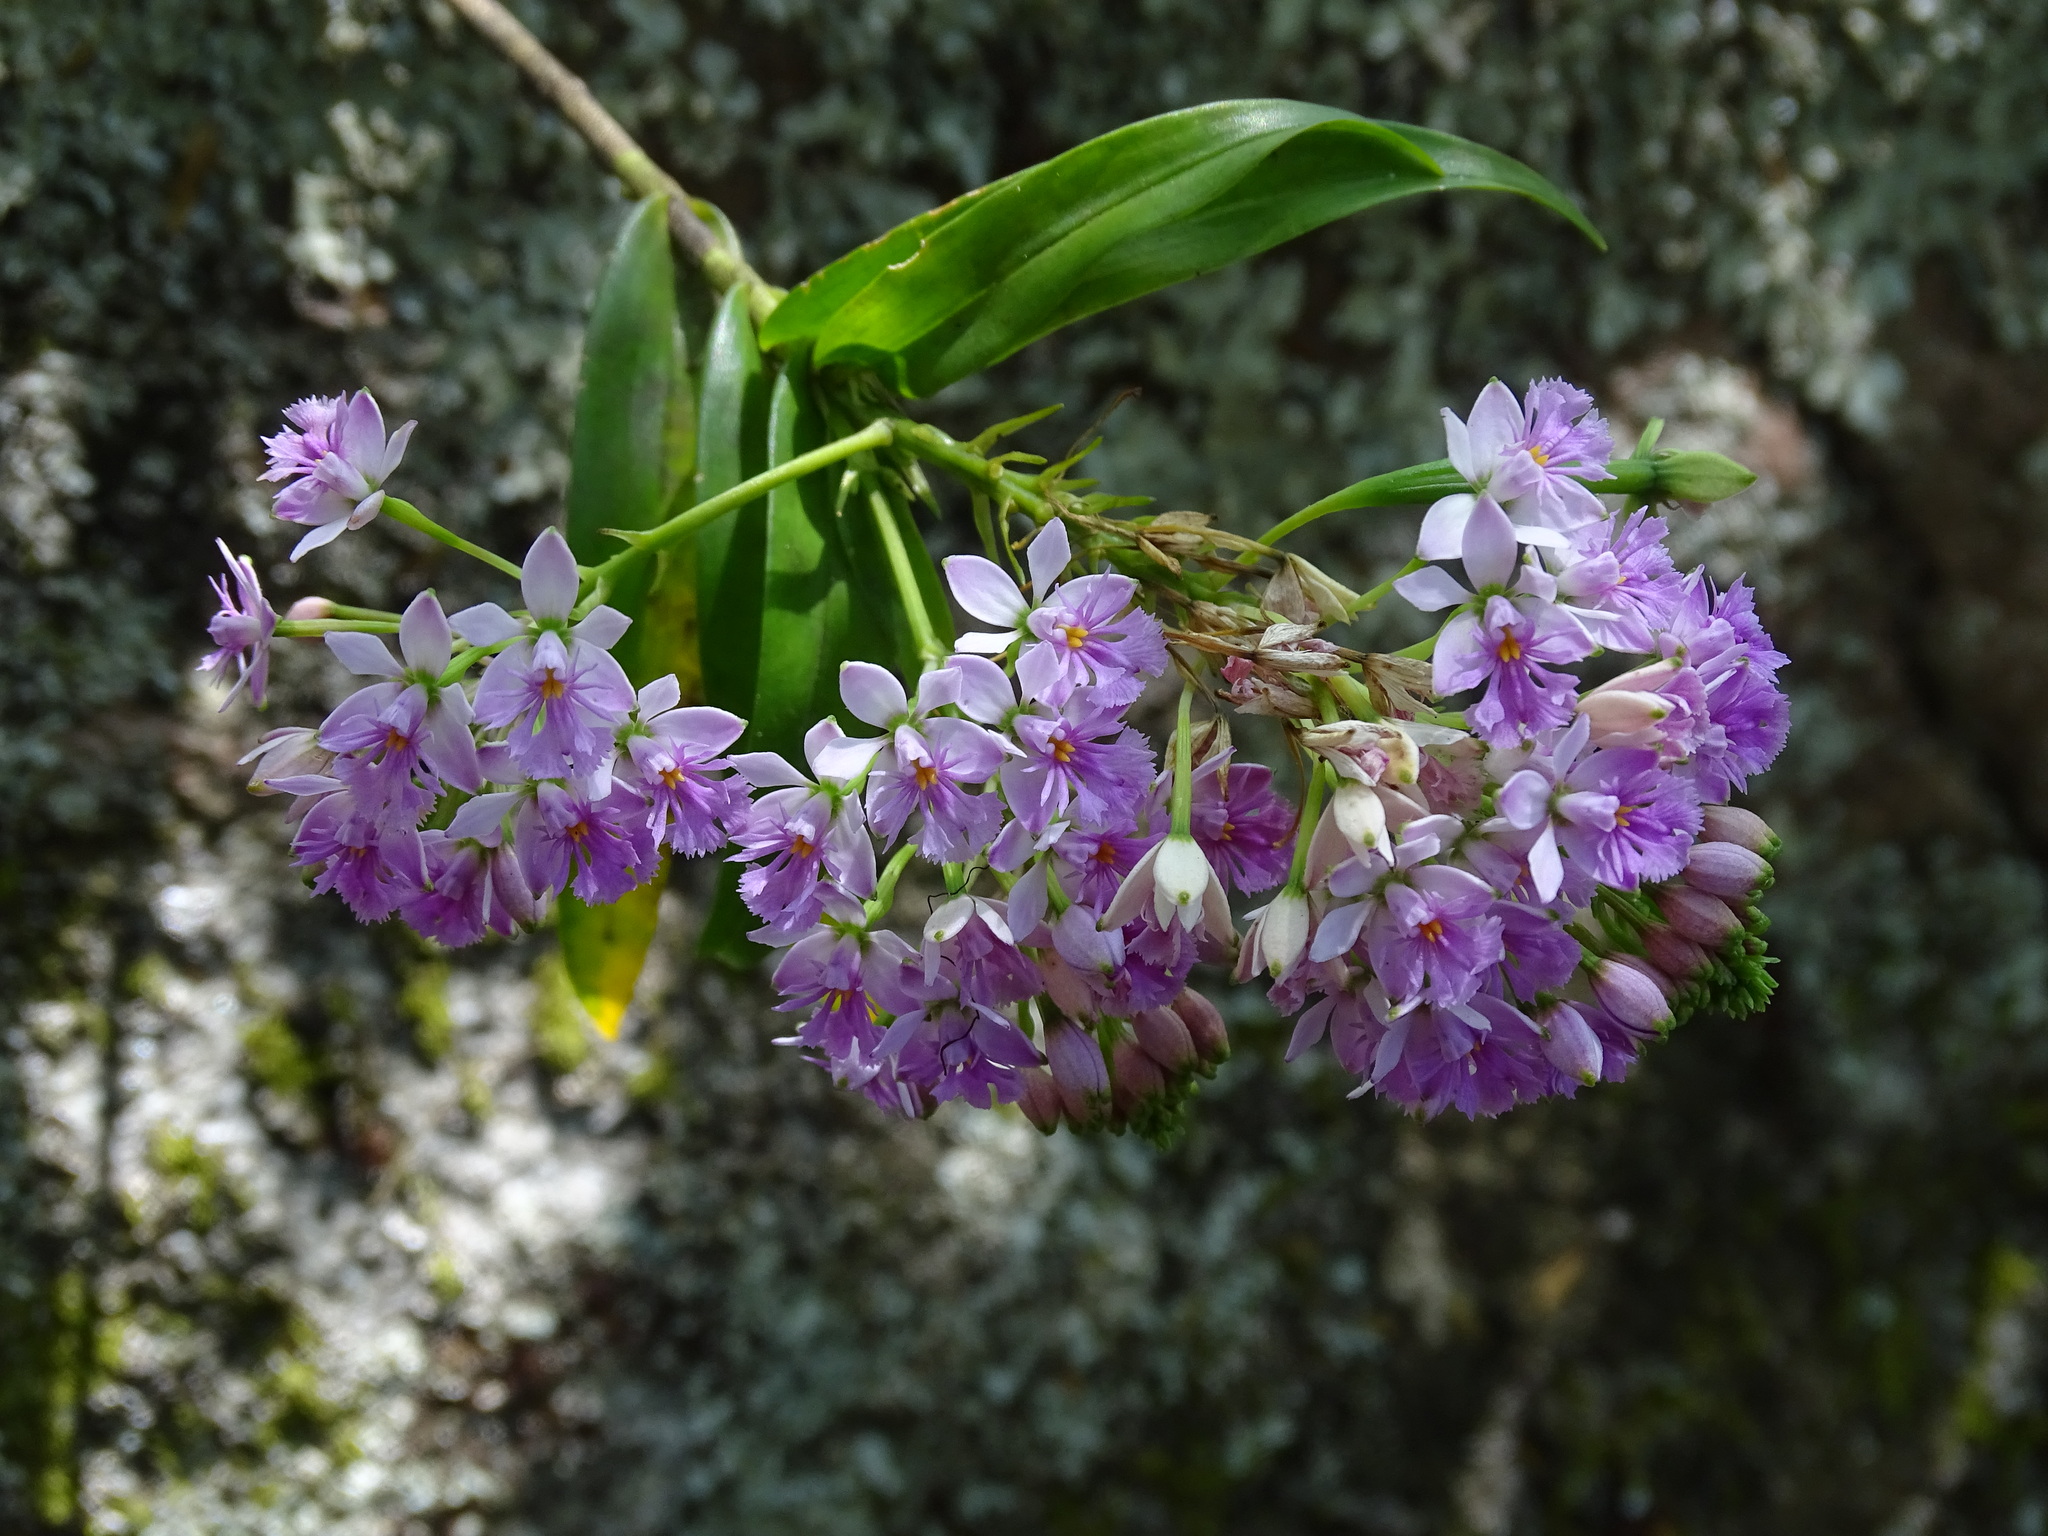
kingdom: Plantae
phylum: Tracheophyta
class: Liliopsida
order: Asparagales
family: Orchidaceae
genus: Epidendrum
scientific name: Epidendrum caligarium
